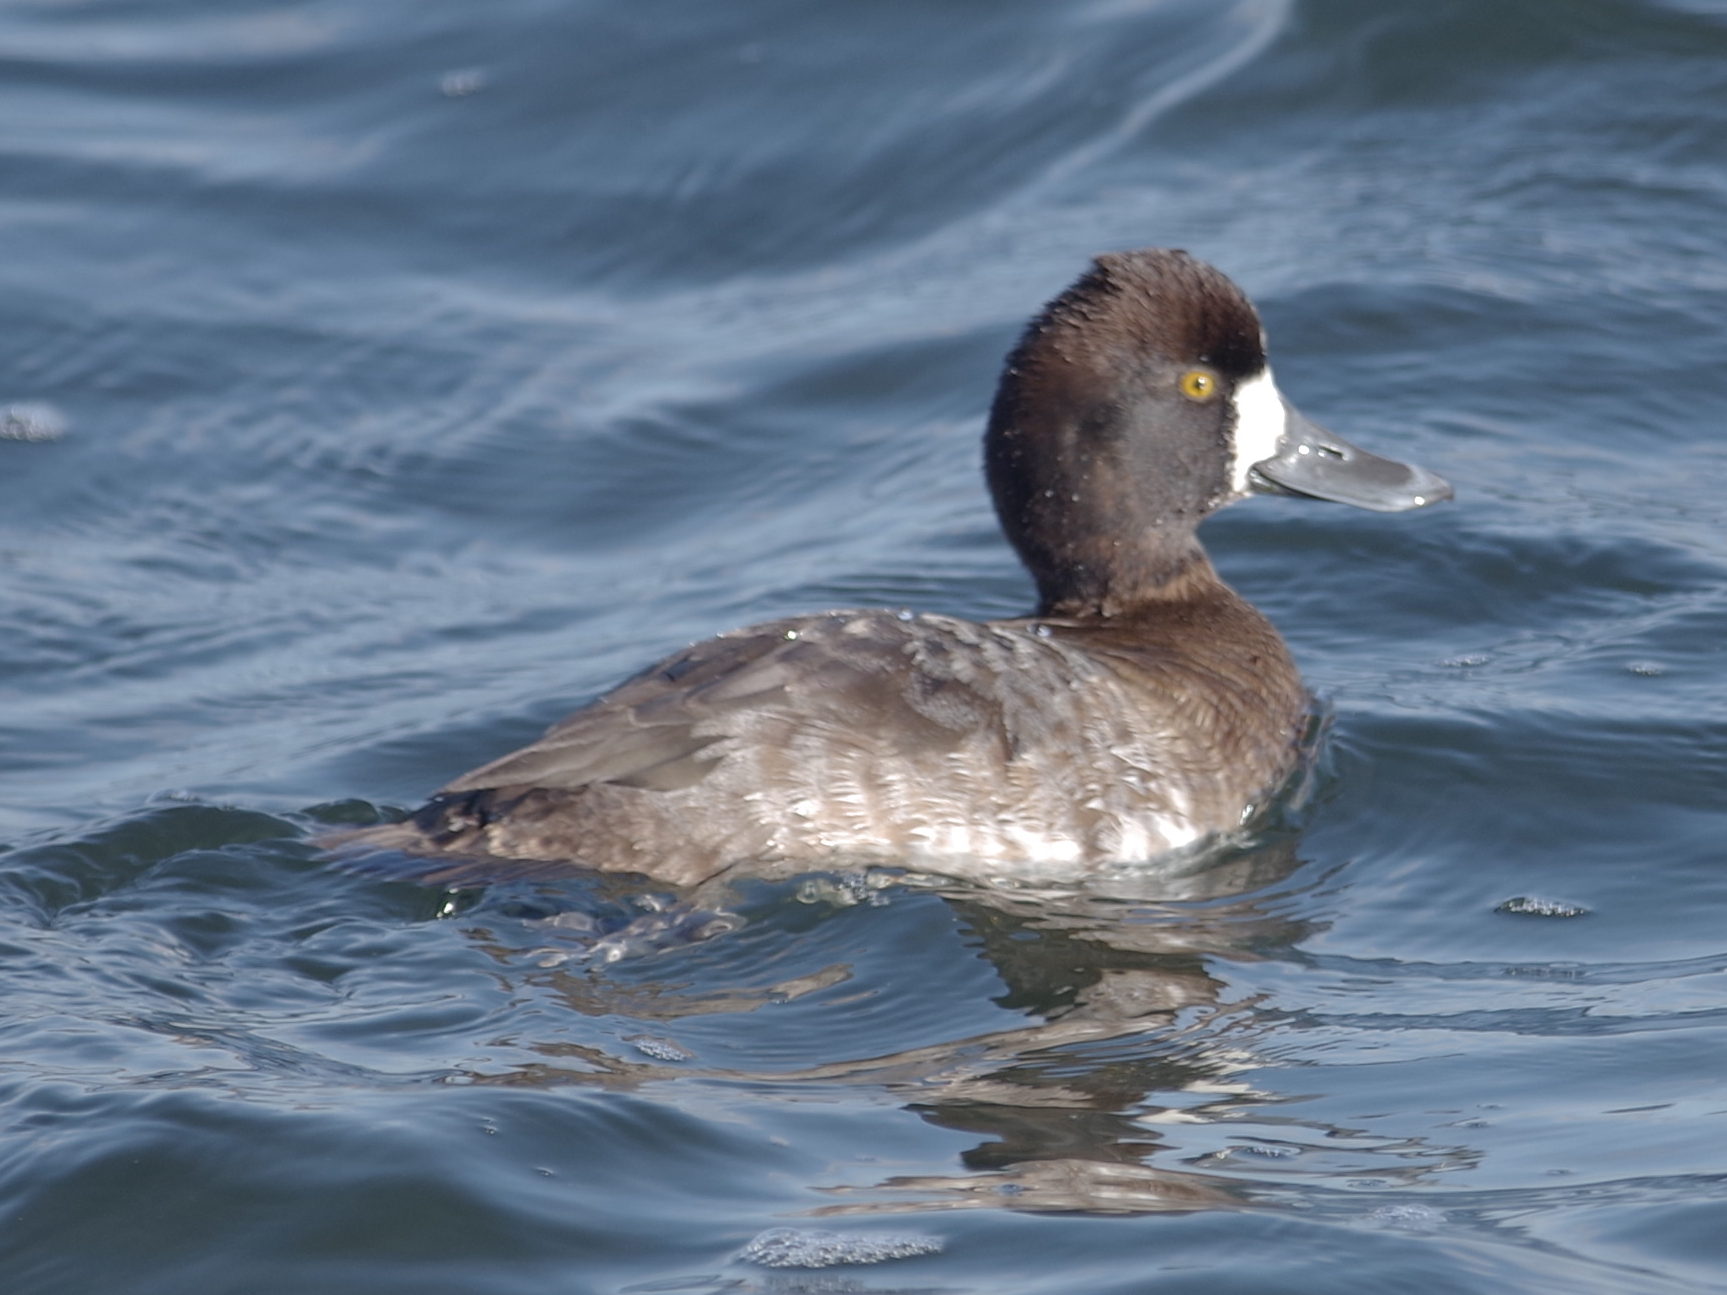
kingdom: Animalia
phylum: Chordata
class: Aves
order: Anseriformes
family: Anatidae
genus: Aythya
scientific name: Aythya affinis
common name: Lesser scaup
